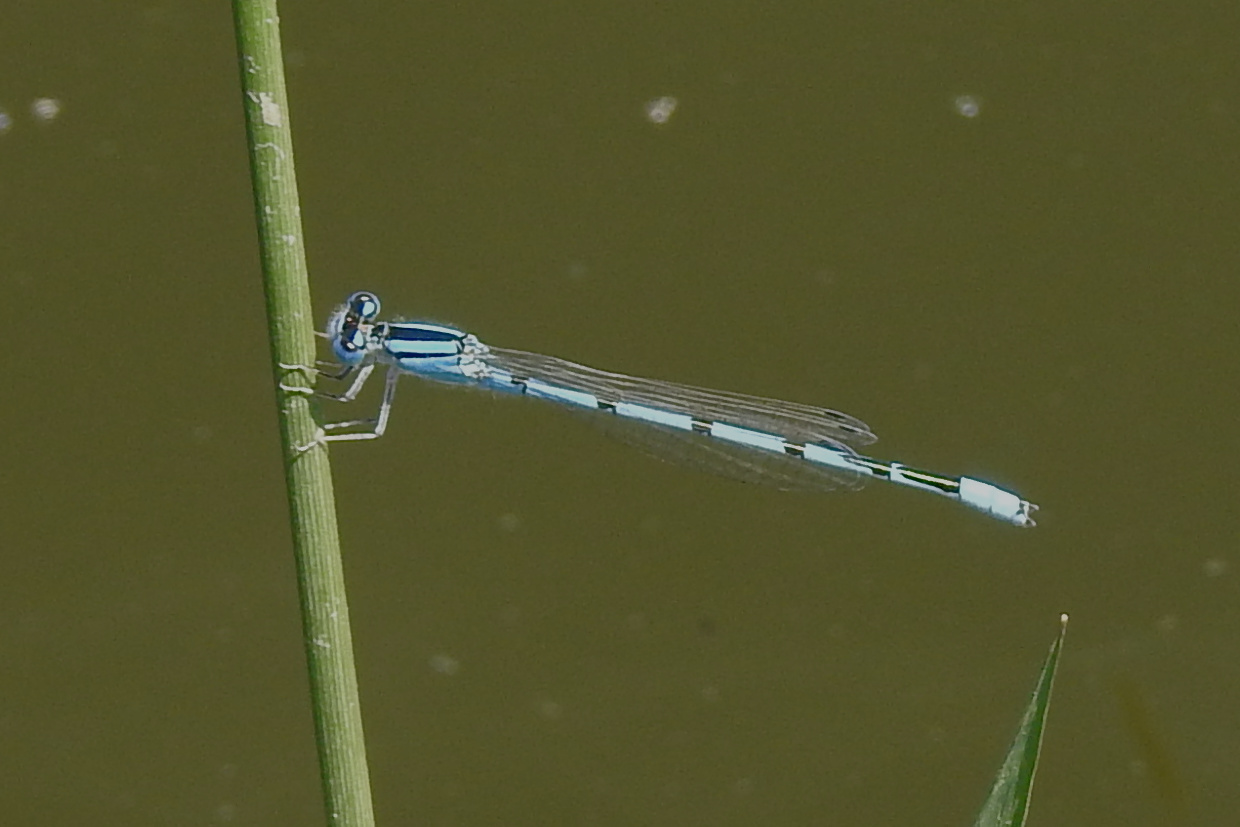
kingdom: Animalia
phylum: Arthropoda
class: Insecta
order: Odonata
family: Coenagrionidae
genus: Enallagma
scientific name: Enallagma civile
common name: Damselfly
